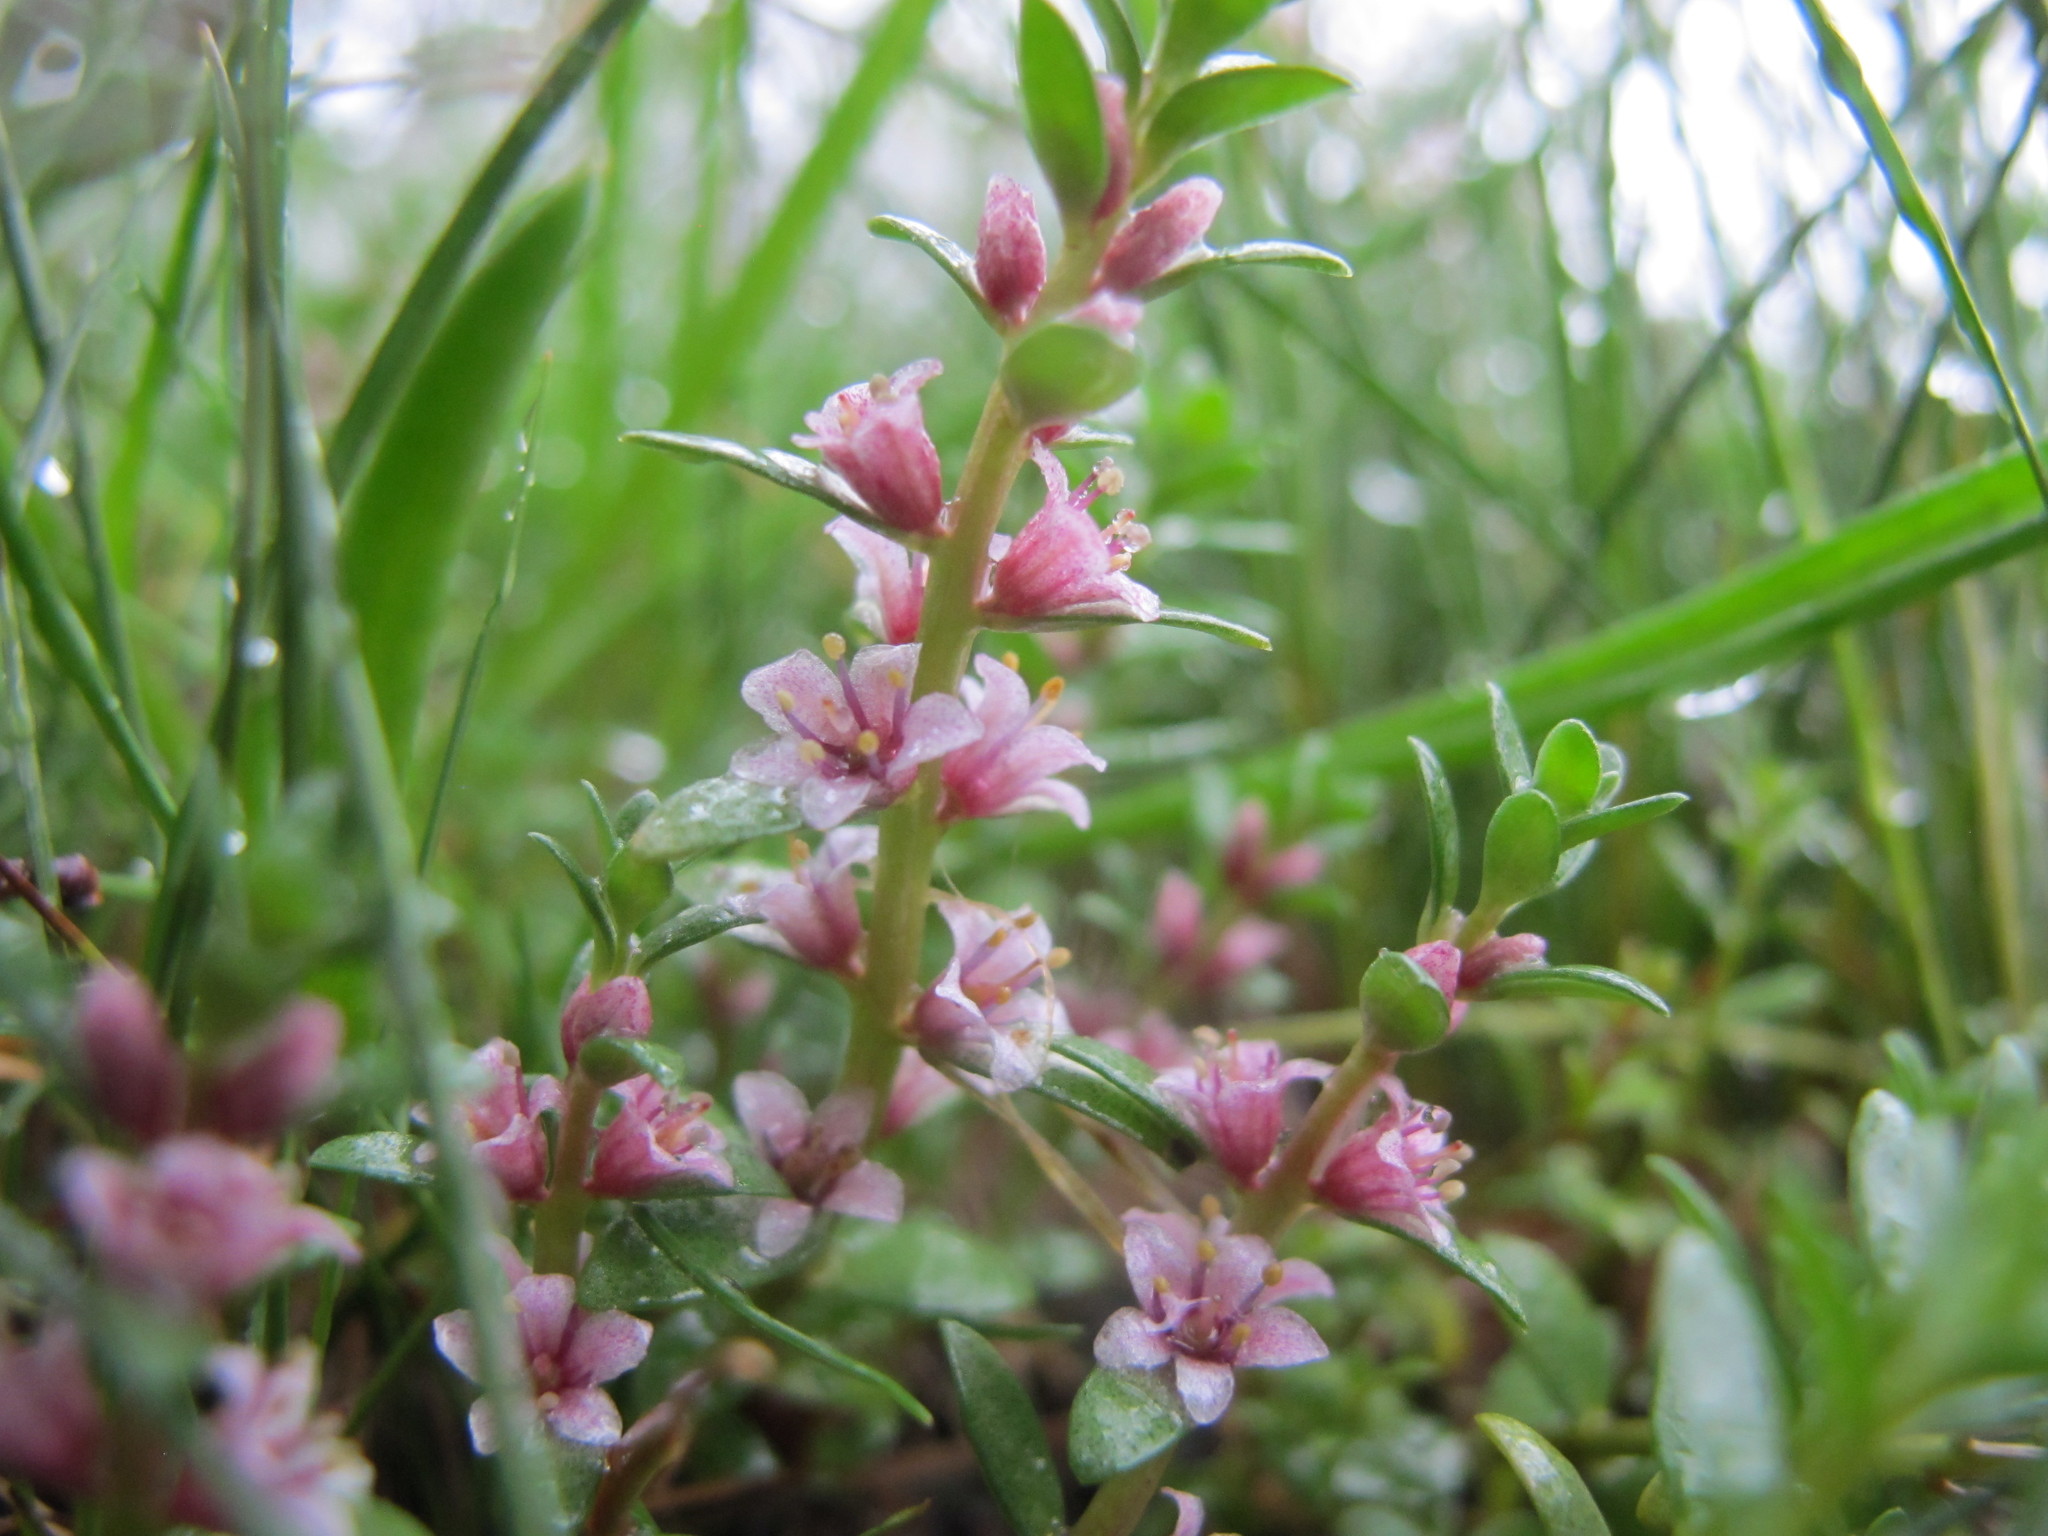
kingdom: Plantae
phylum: Tracheophyta
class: Magnoliopsida
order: Ericales
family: Primulaceae
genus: Lysimachia
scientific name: Lysimachia maritima
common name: Sea milkwort
